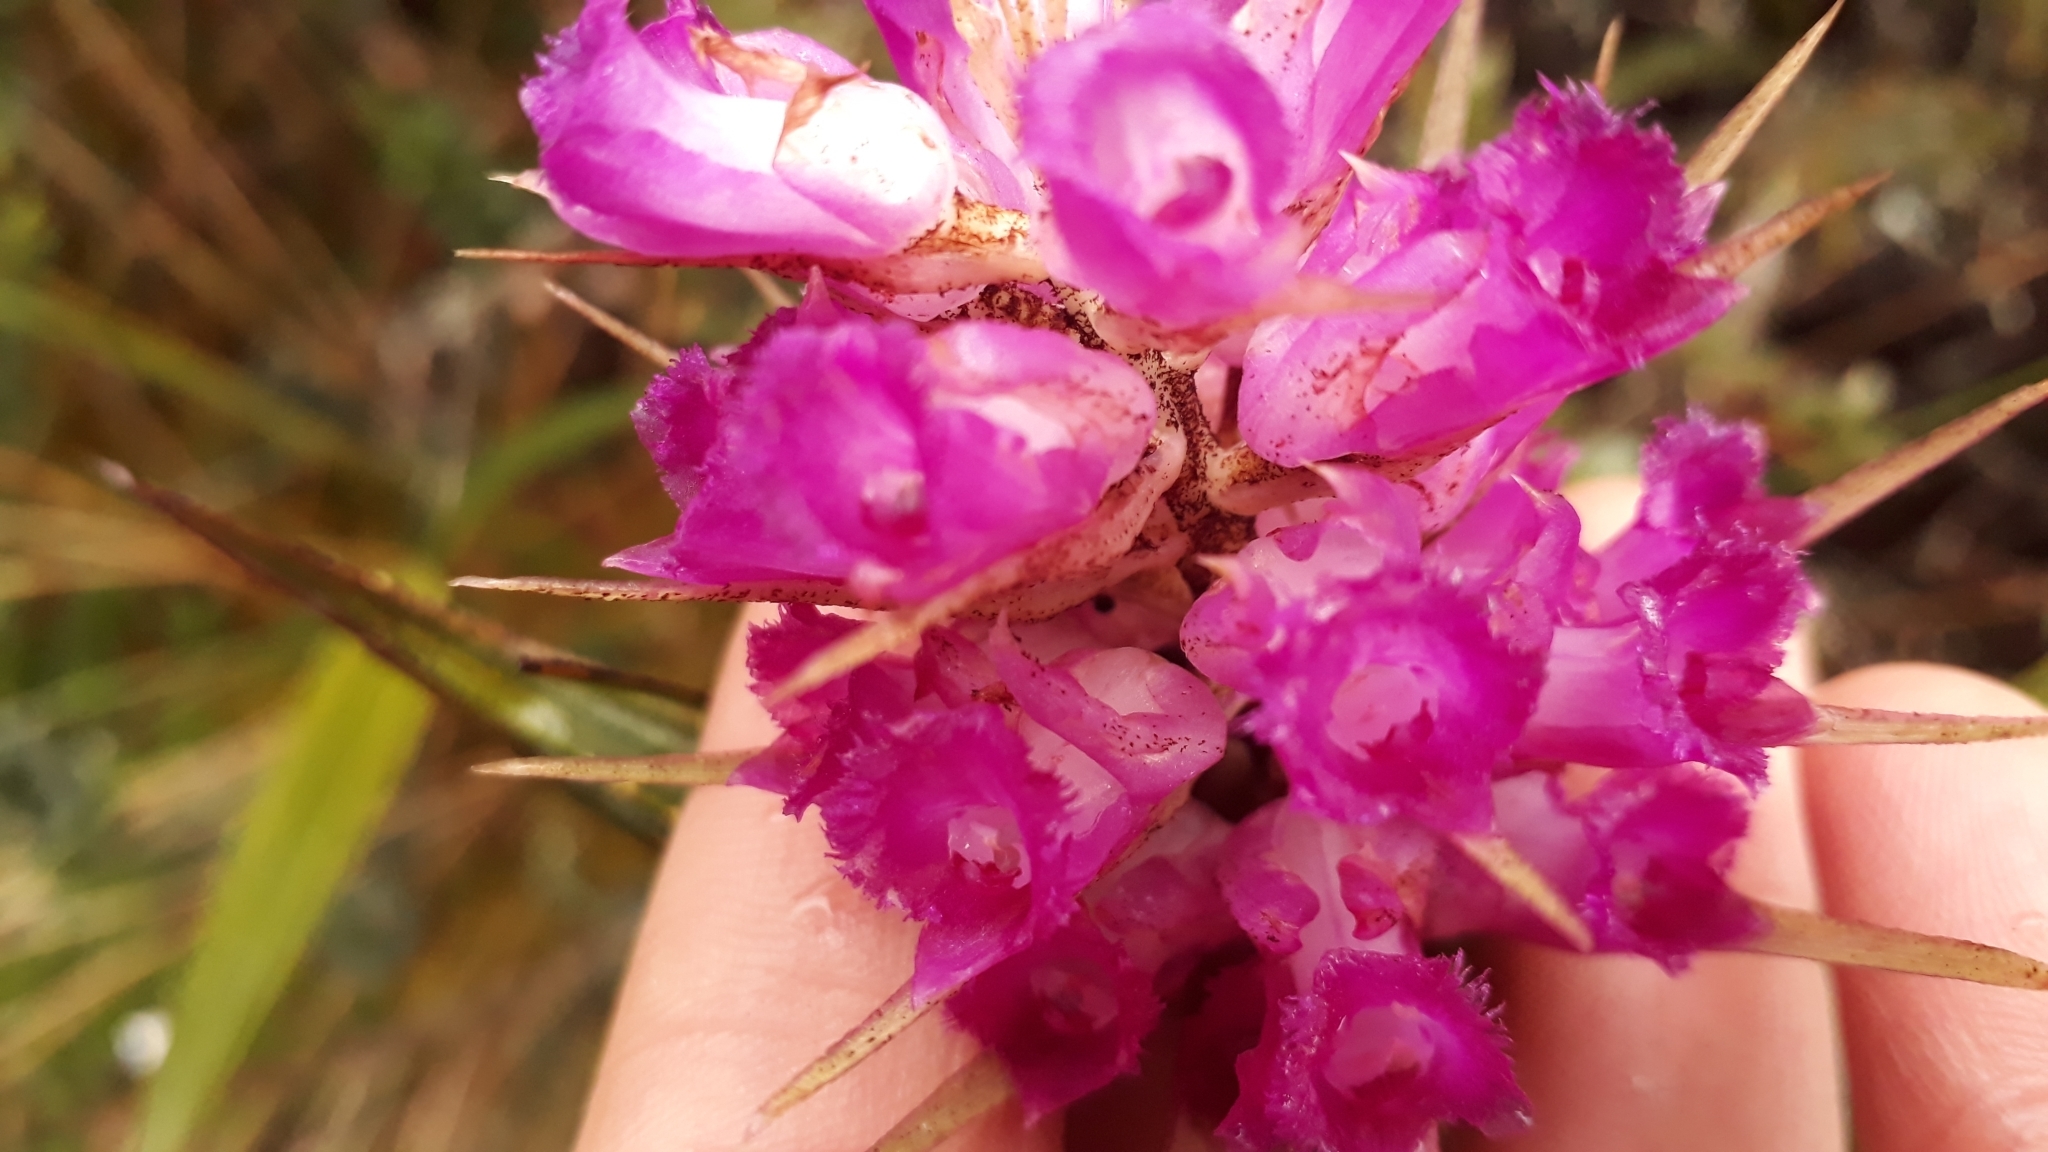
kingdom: Plantae
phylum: Tracheophyta
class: Liliopsida
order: Asparagales
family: Orchidaceae
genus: Elleanthus
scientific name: Elleanthus maculatus
